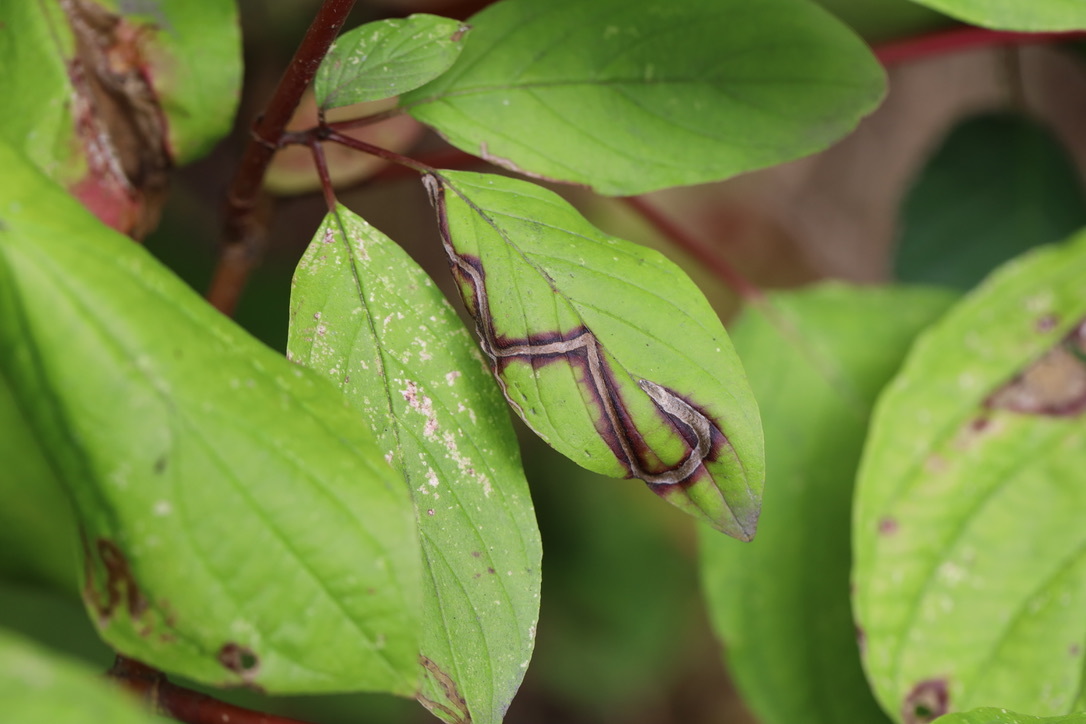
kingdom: Animalia
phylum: Arthropoda
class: Insecta
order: Diptera
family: Agromyzidae
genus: Phytomyza
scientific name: Phytomyza agromyzina
